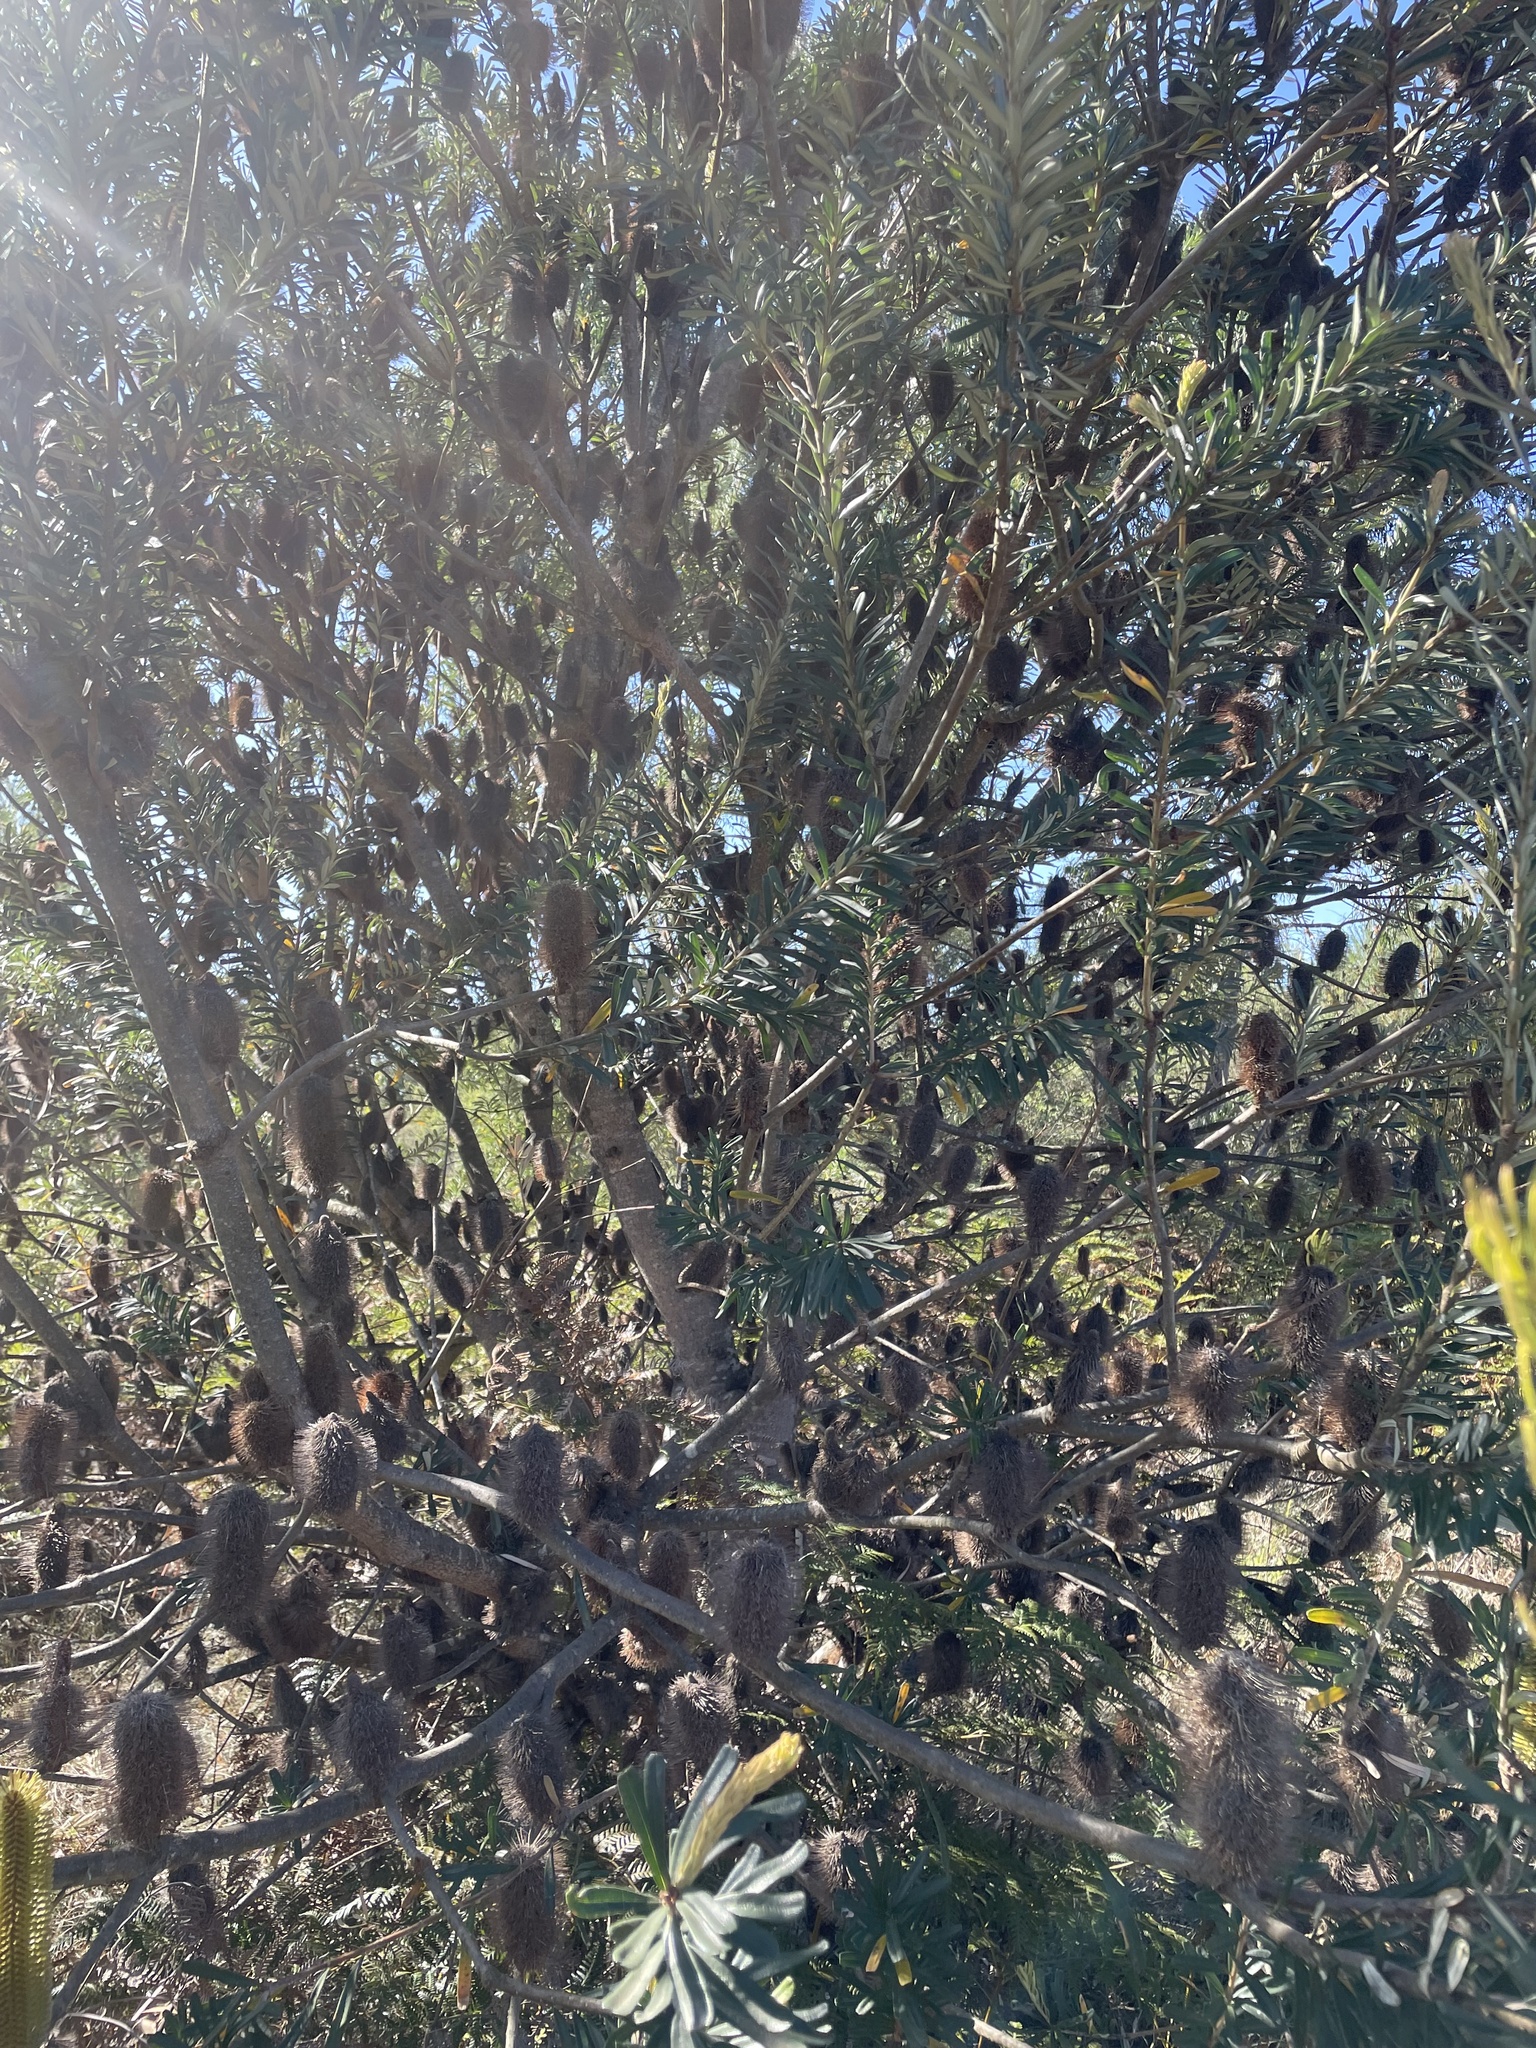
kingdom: Plantae
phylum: Tracheophyta
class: Magnoliopsida
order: Proteales
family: Proteaceae
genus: Banksia
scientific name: Banksia marginata
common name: Silver banksia
